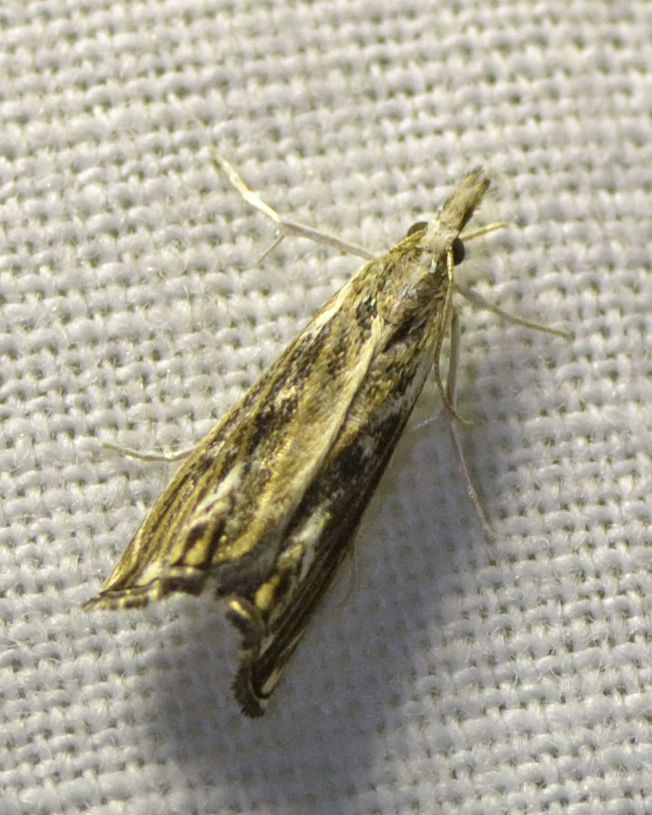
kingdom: Animalia
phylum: Arthropoda
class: Insecta
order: Lepidoptera
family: Crambidae
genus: Catoptria
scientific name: Catoptria verellus
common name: Marbled grass-veneer
